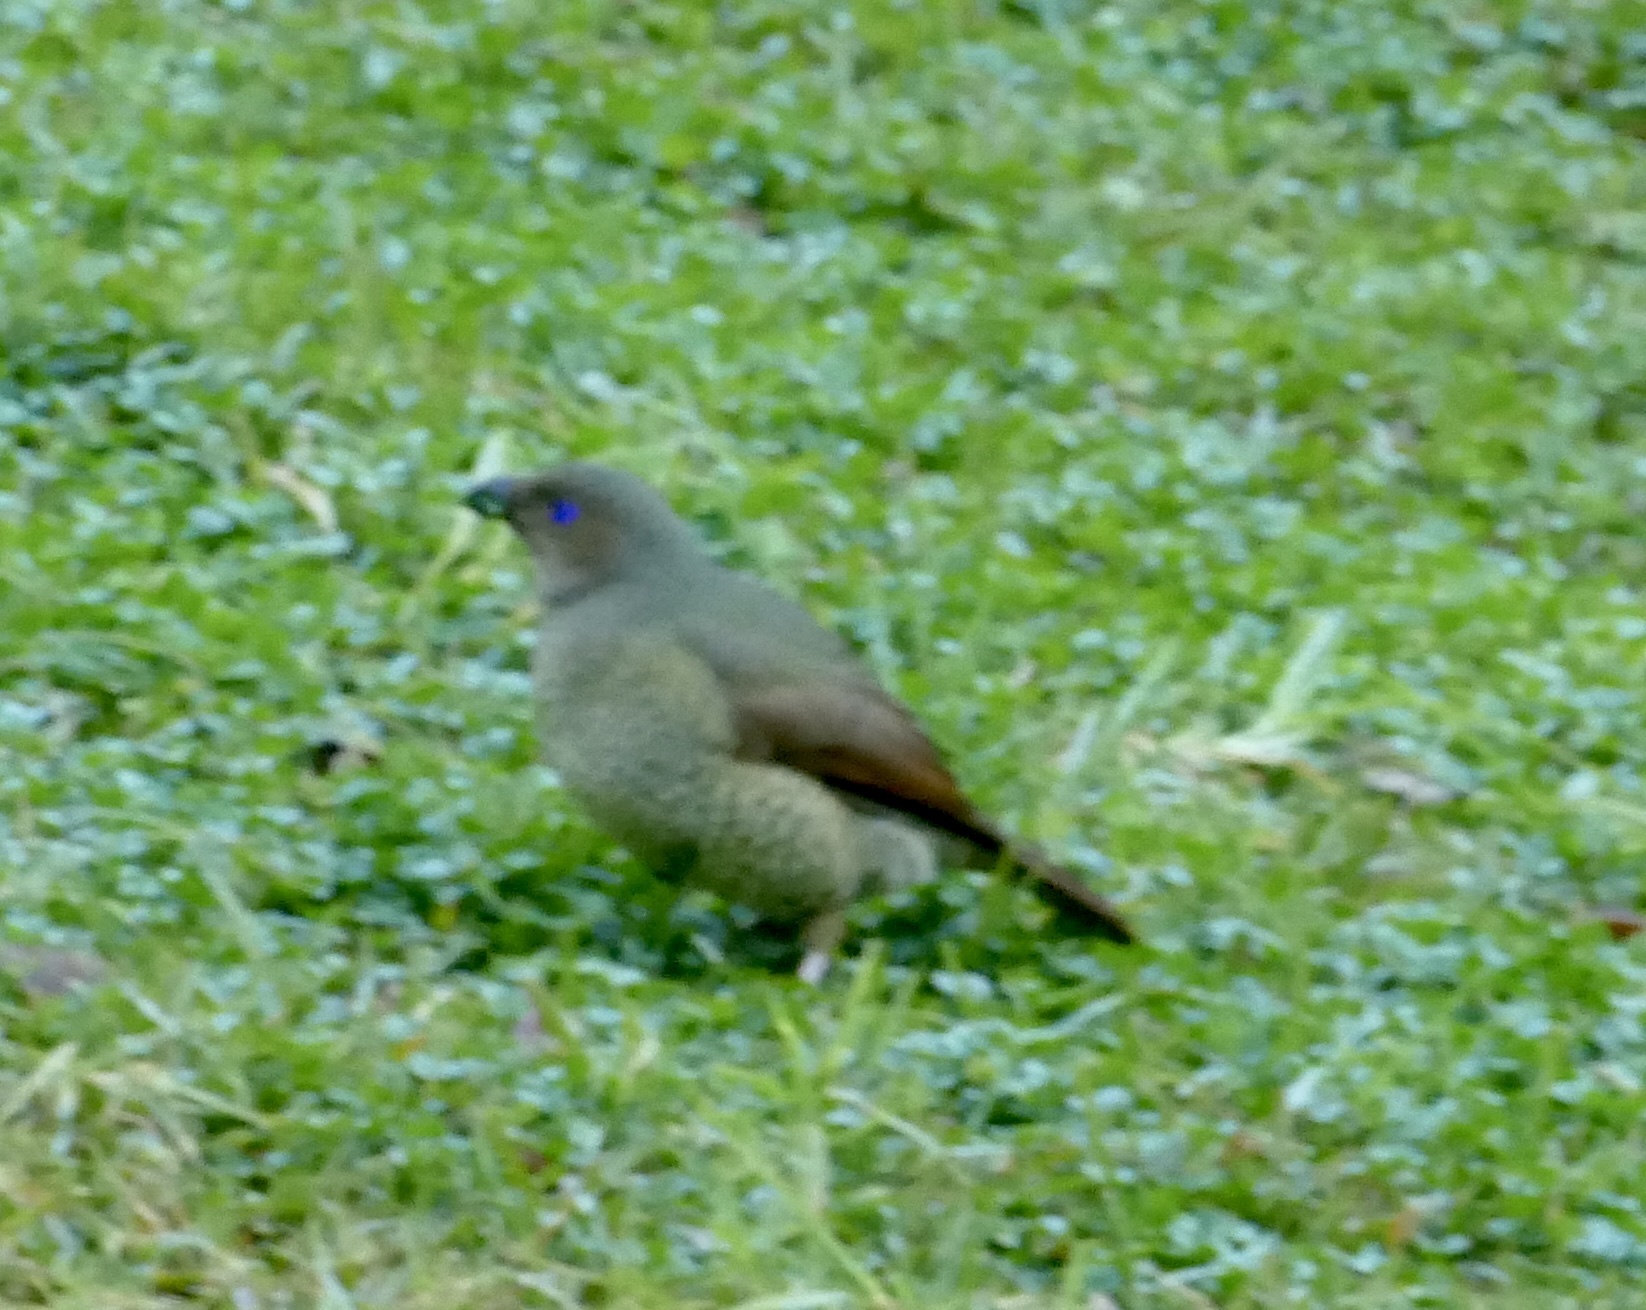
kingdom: Animalia
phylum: Chordata
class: Aves
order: Passeriformes
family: Ptilonorhynchidae
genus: Ptilonorhynchus
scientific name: Ptilonorhynchus violaceus
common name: Satin bowerbird
